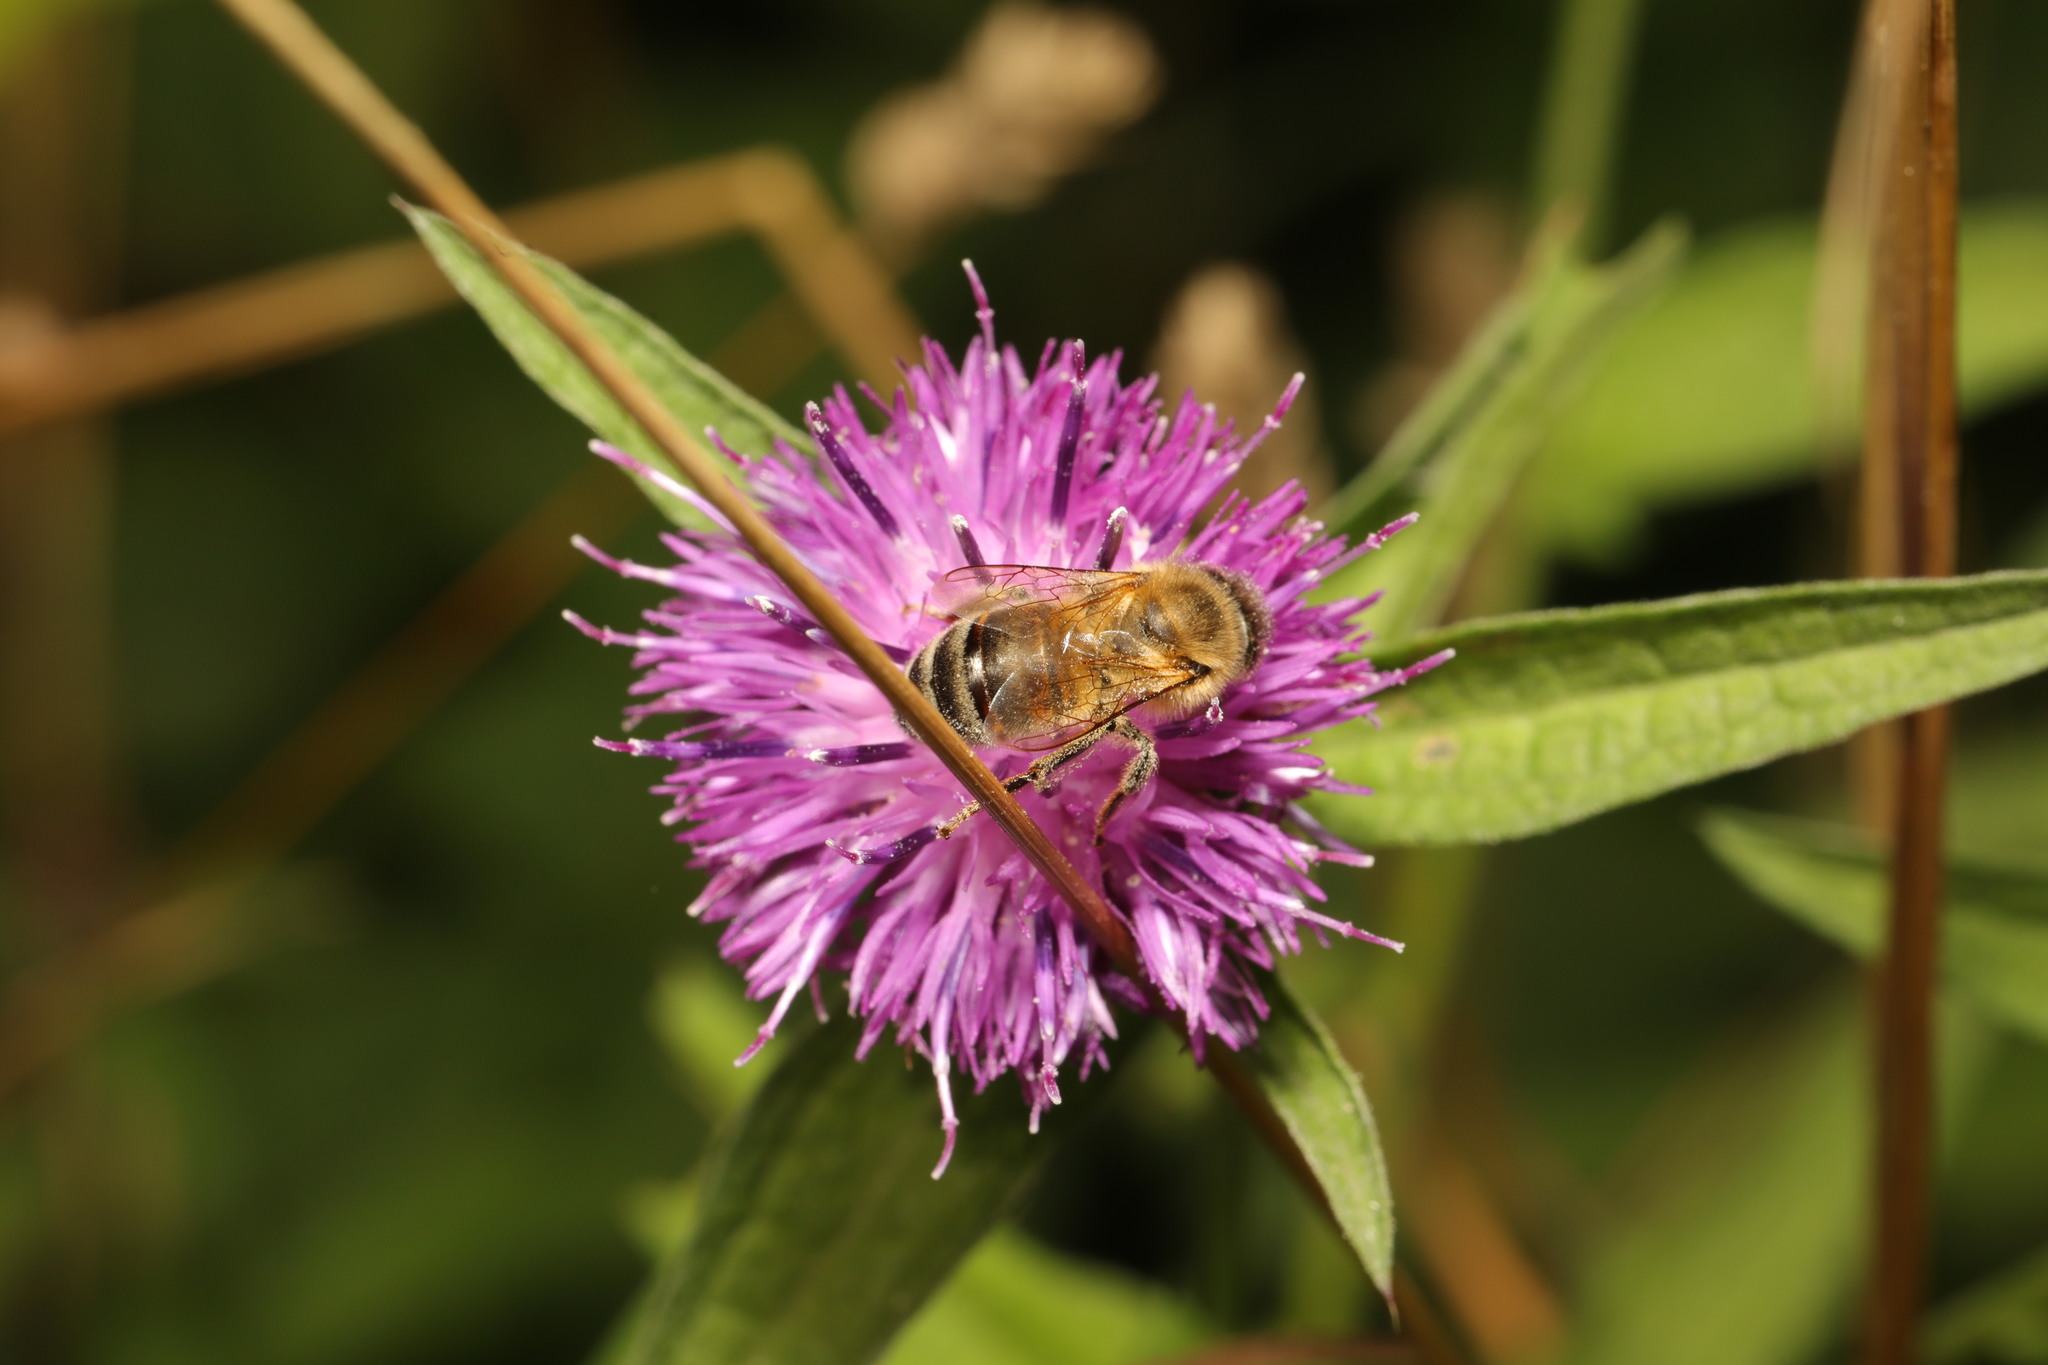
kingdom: Animalia
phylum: Arthropoda
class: Insecta
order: Hymenoptera
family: Apidae
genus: Apis
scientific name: Apis mellifera
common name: Honey bee
